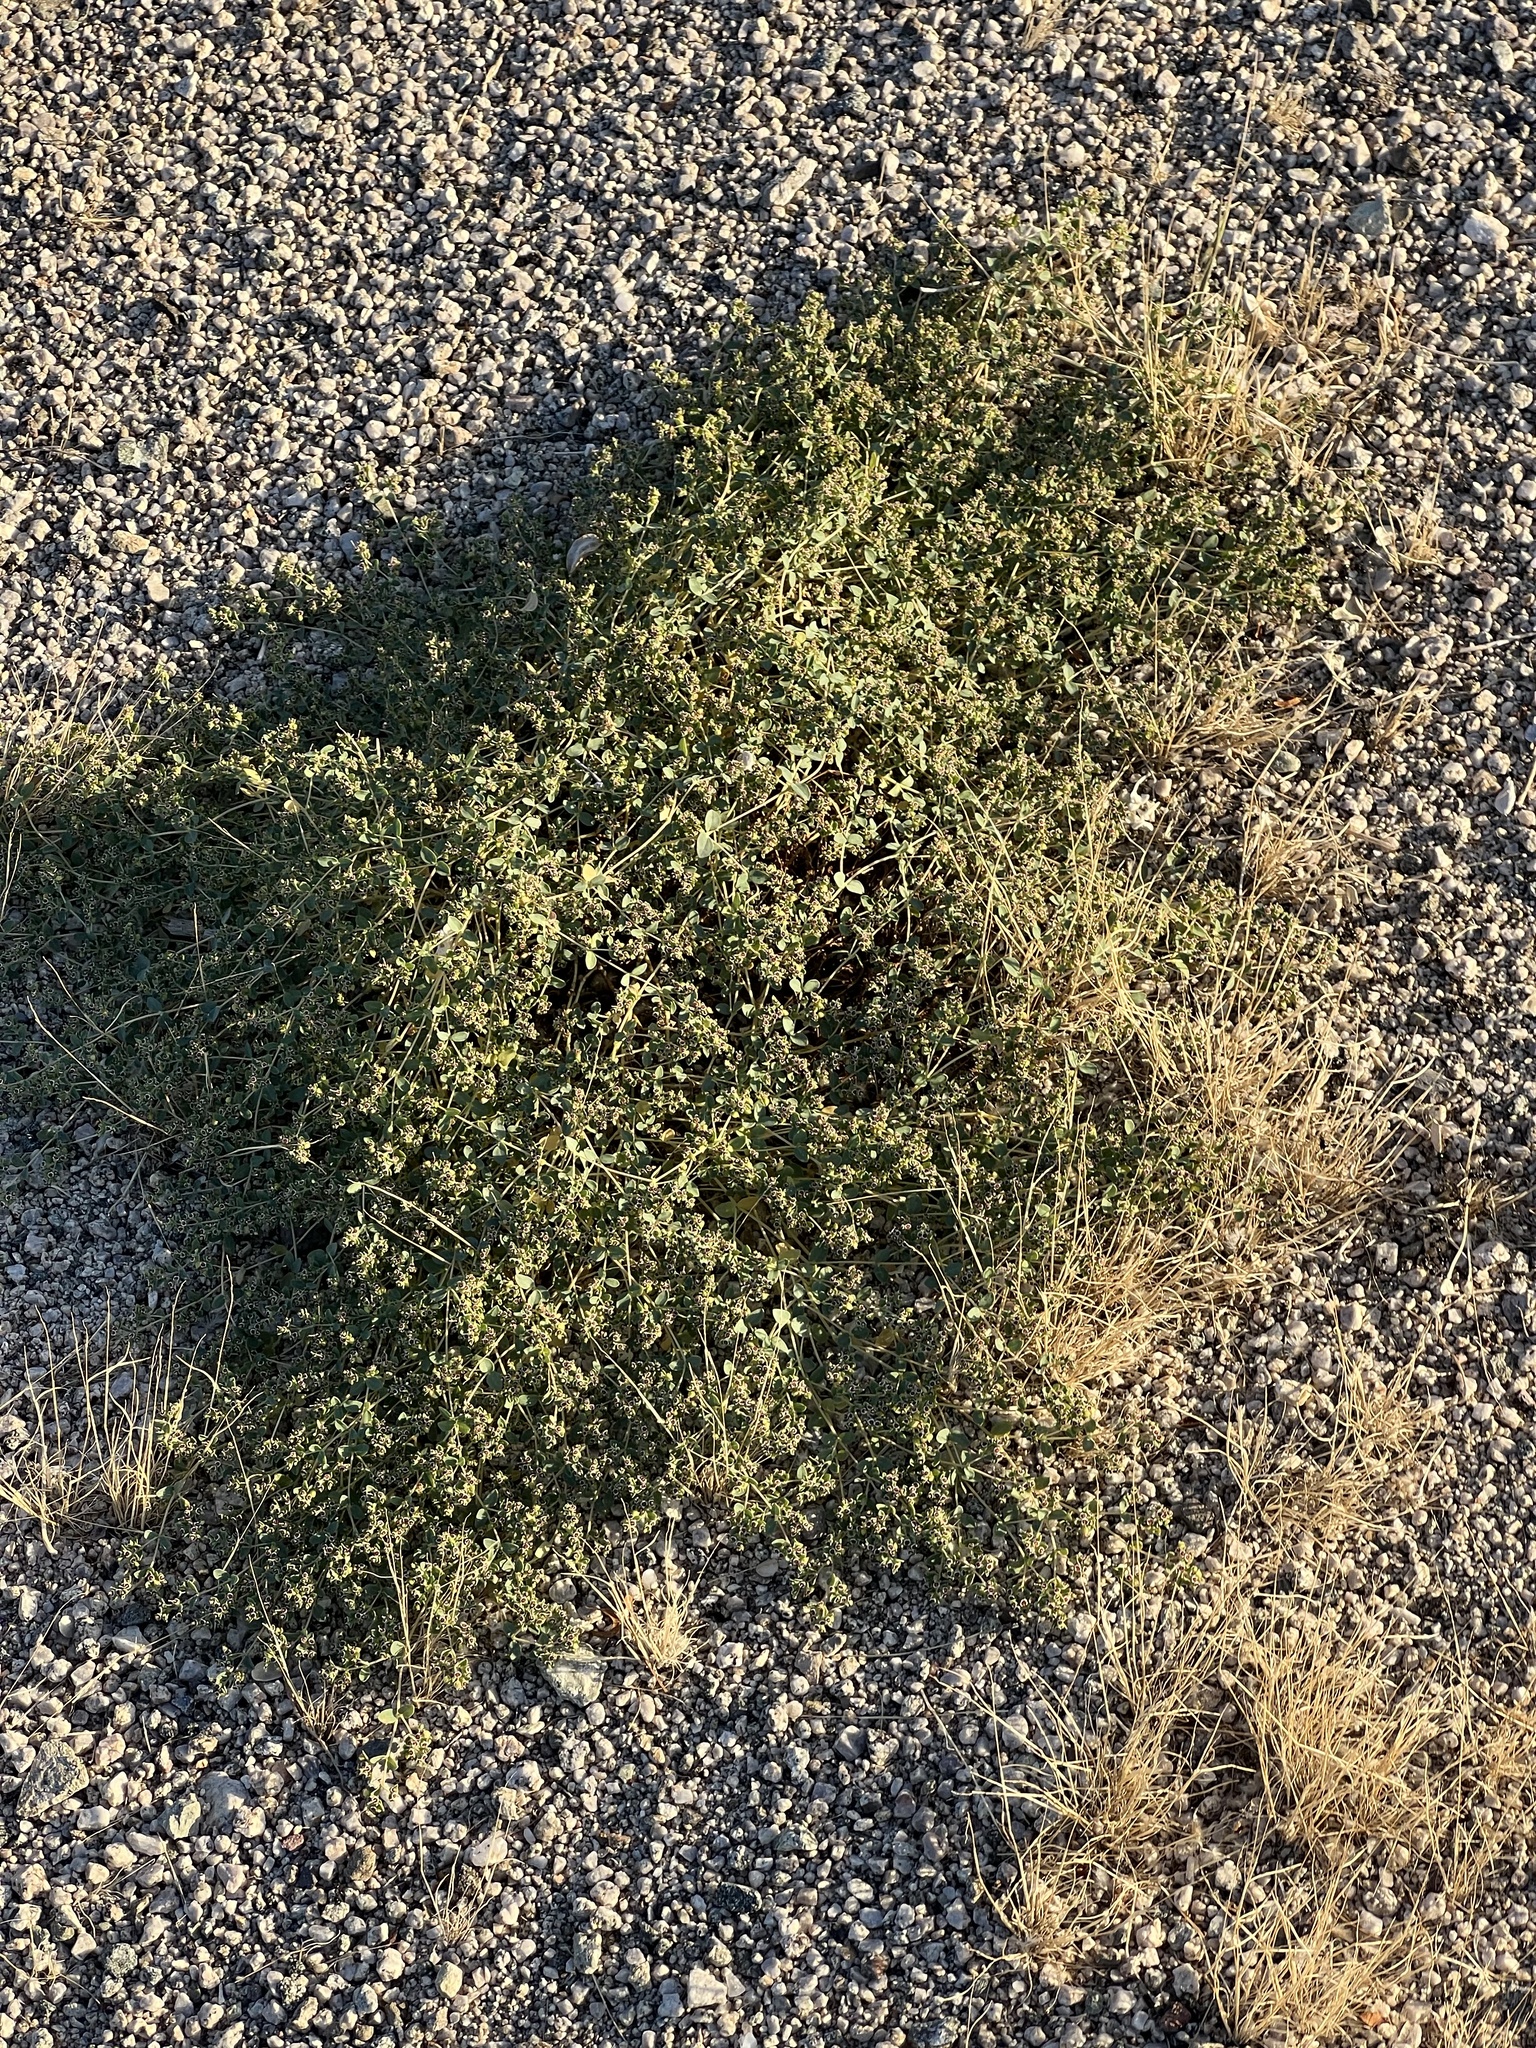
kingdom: Plantae
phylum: Tracheophyta
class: Magnoliopsida
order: Malpighiales
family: Euphorbiaceae
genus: Euphorbia
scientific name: Euphorbia polycarpa
